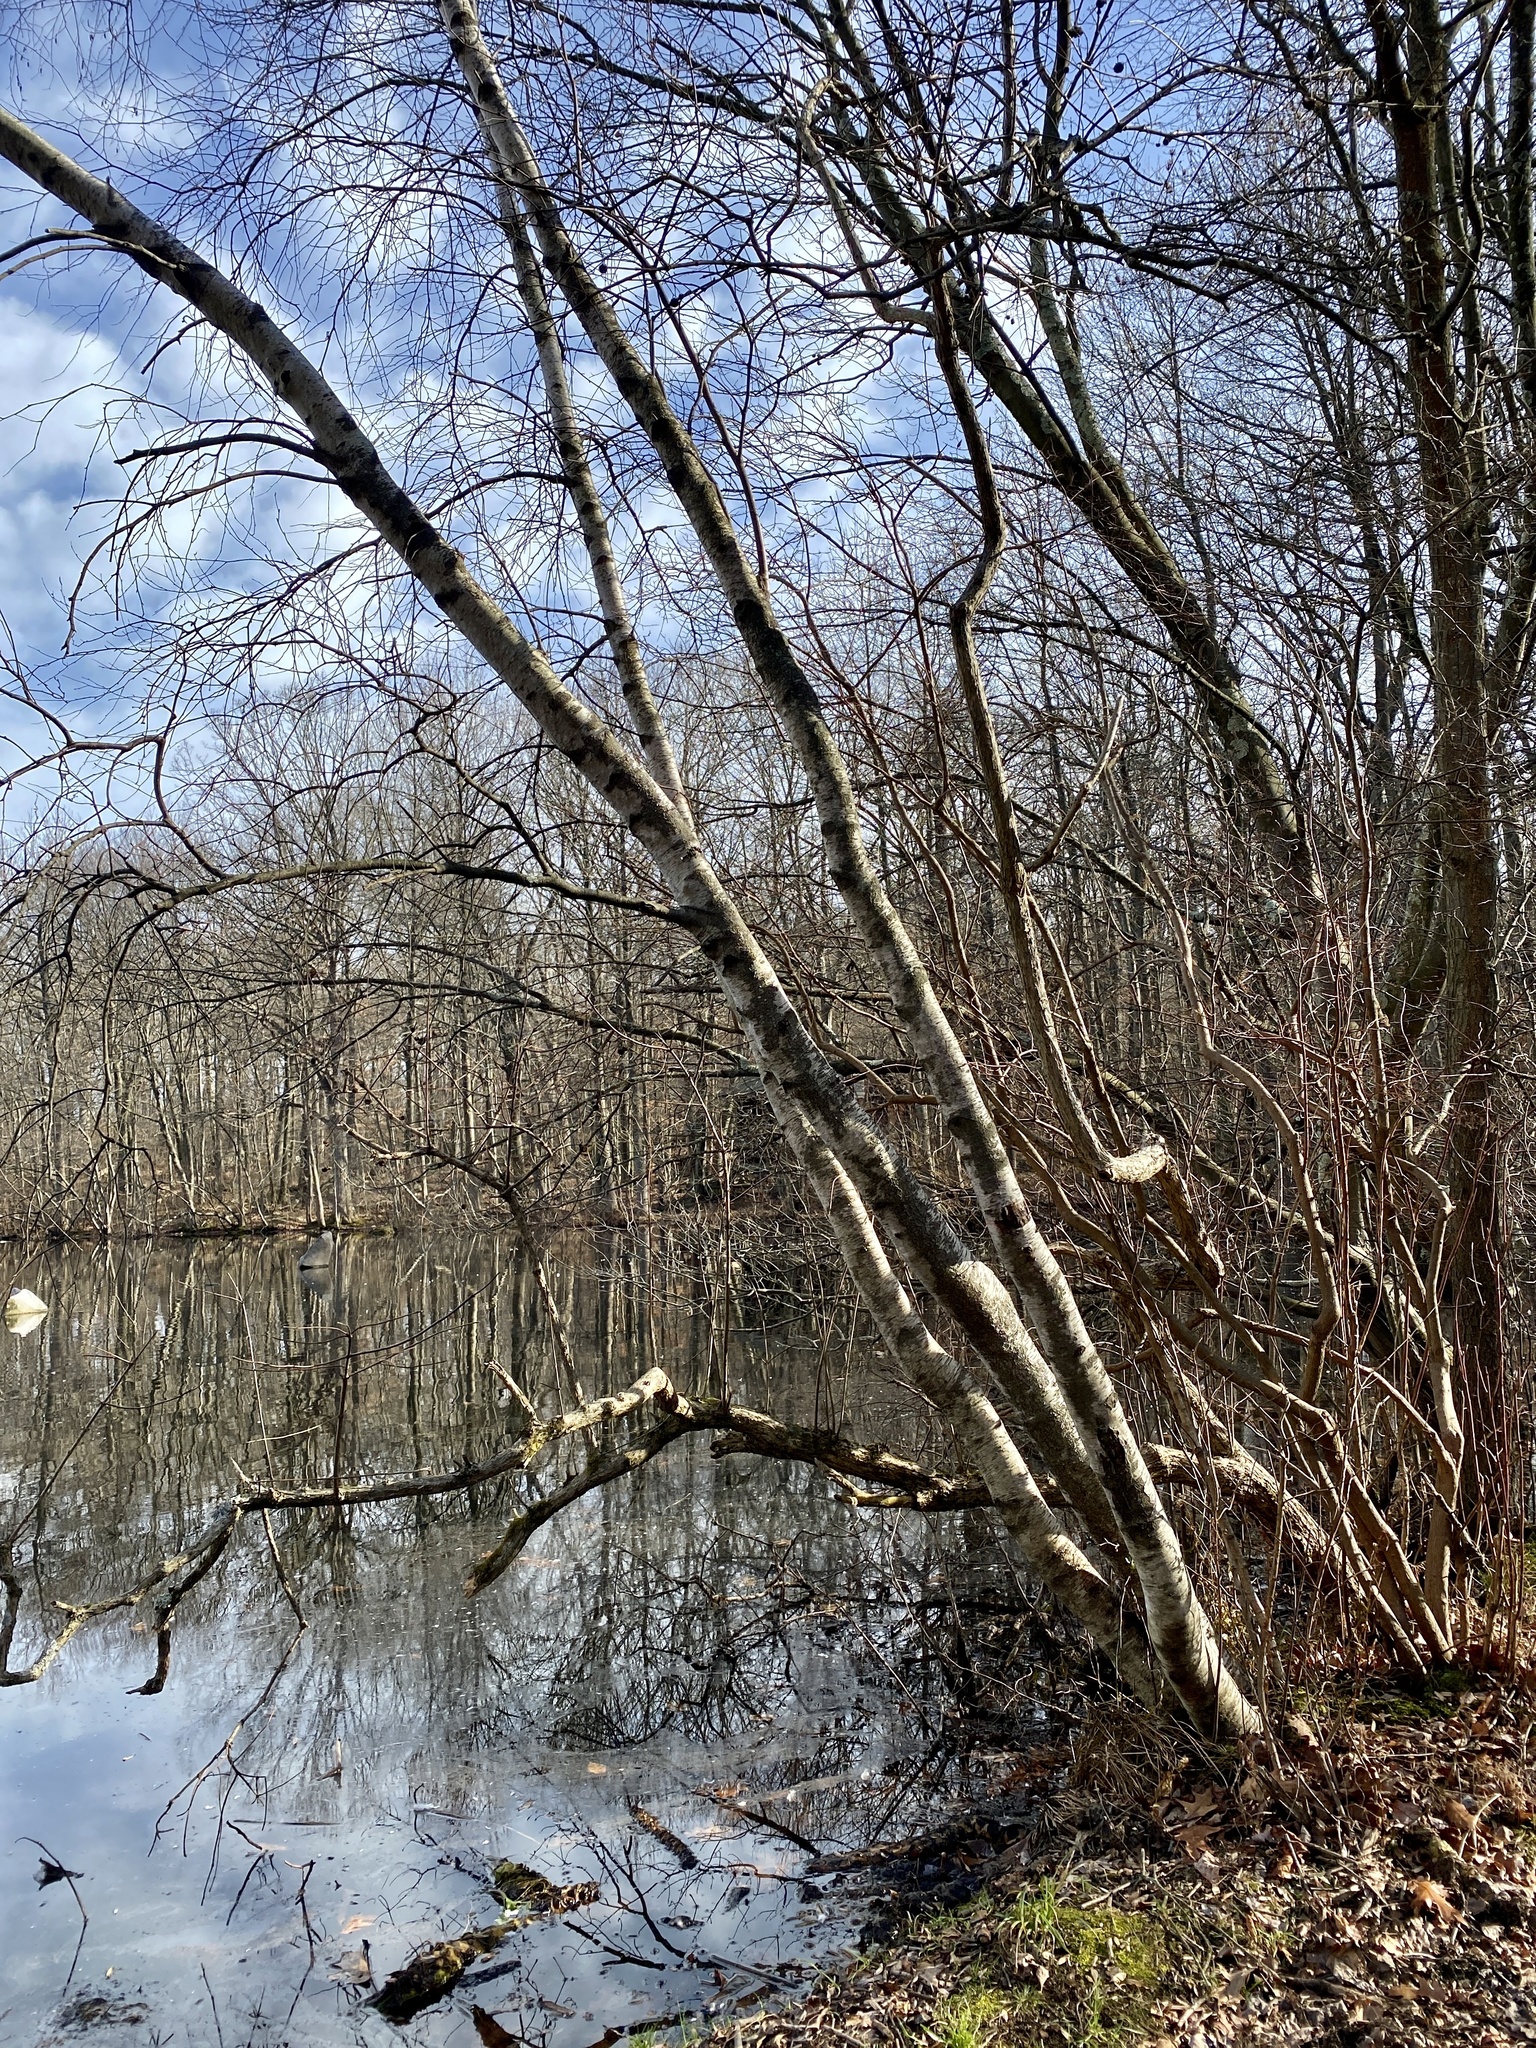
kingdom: Plantae
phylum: Tracheophyta
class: Magnoliopsida
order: Fagales
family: Betulaceae
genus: Betula
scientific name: Betula populifolia
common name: Fire birch
